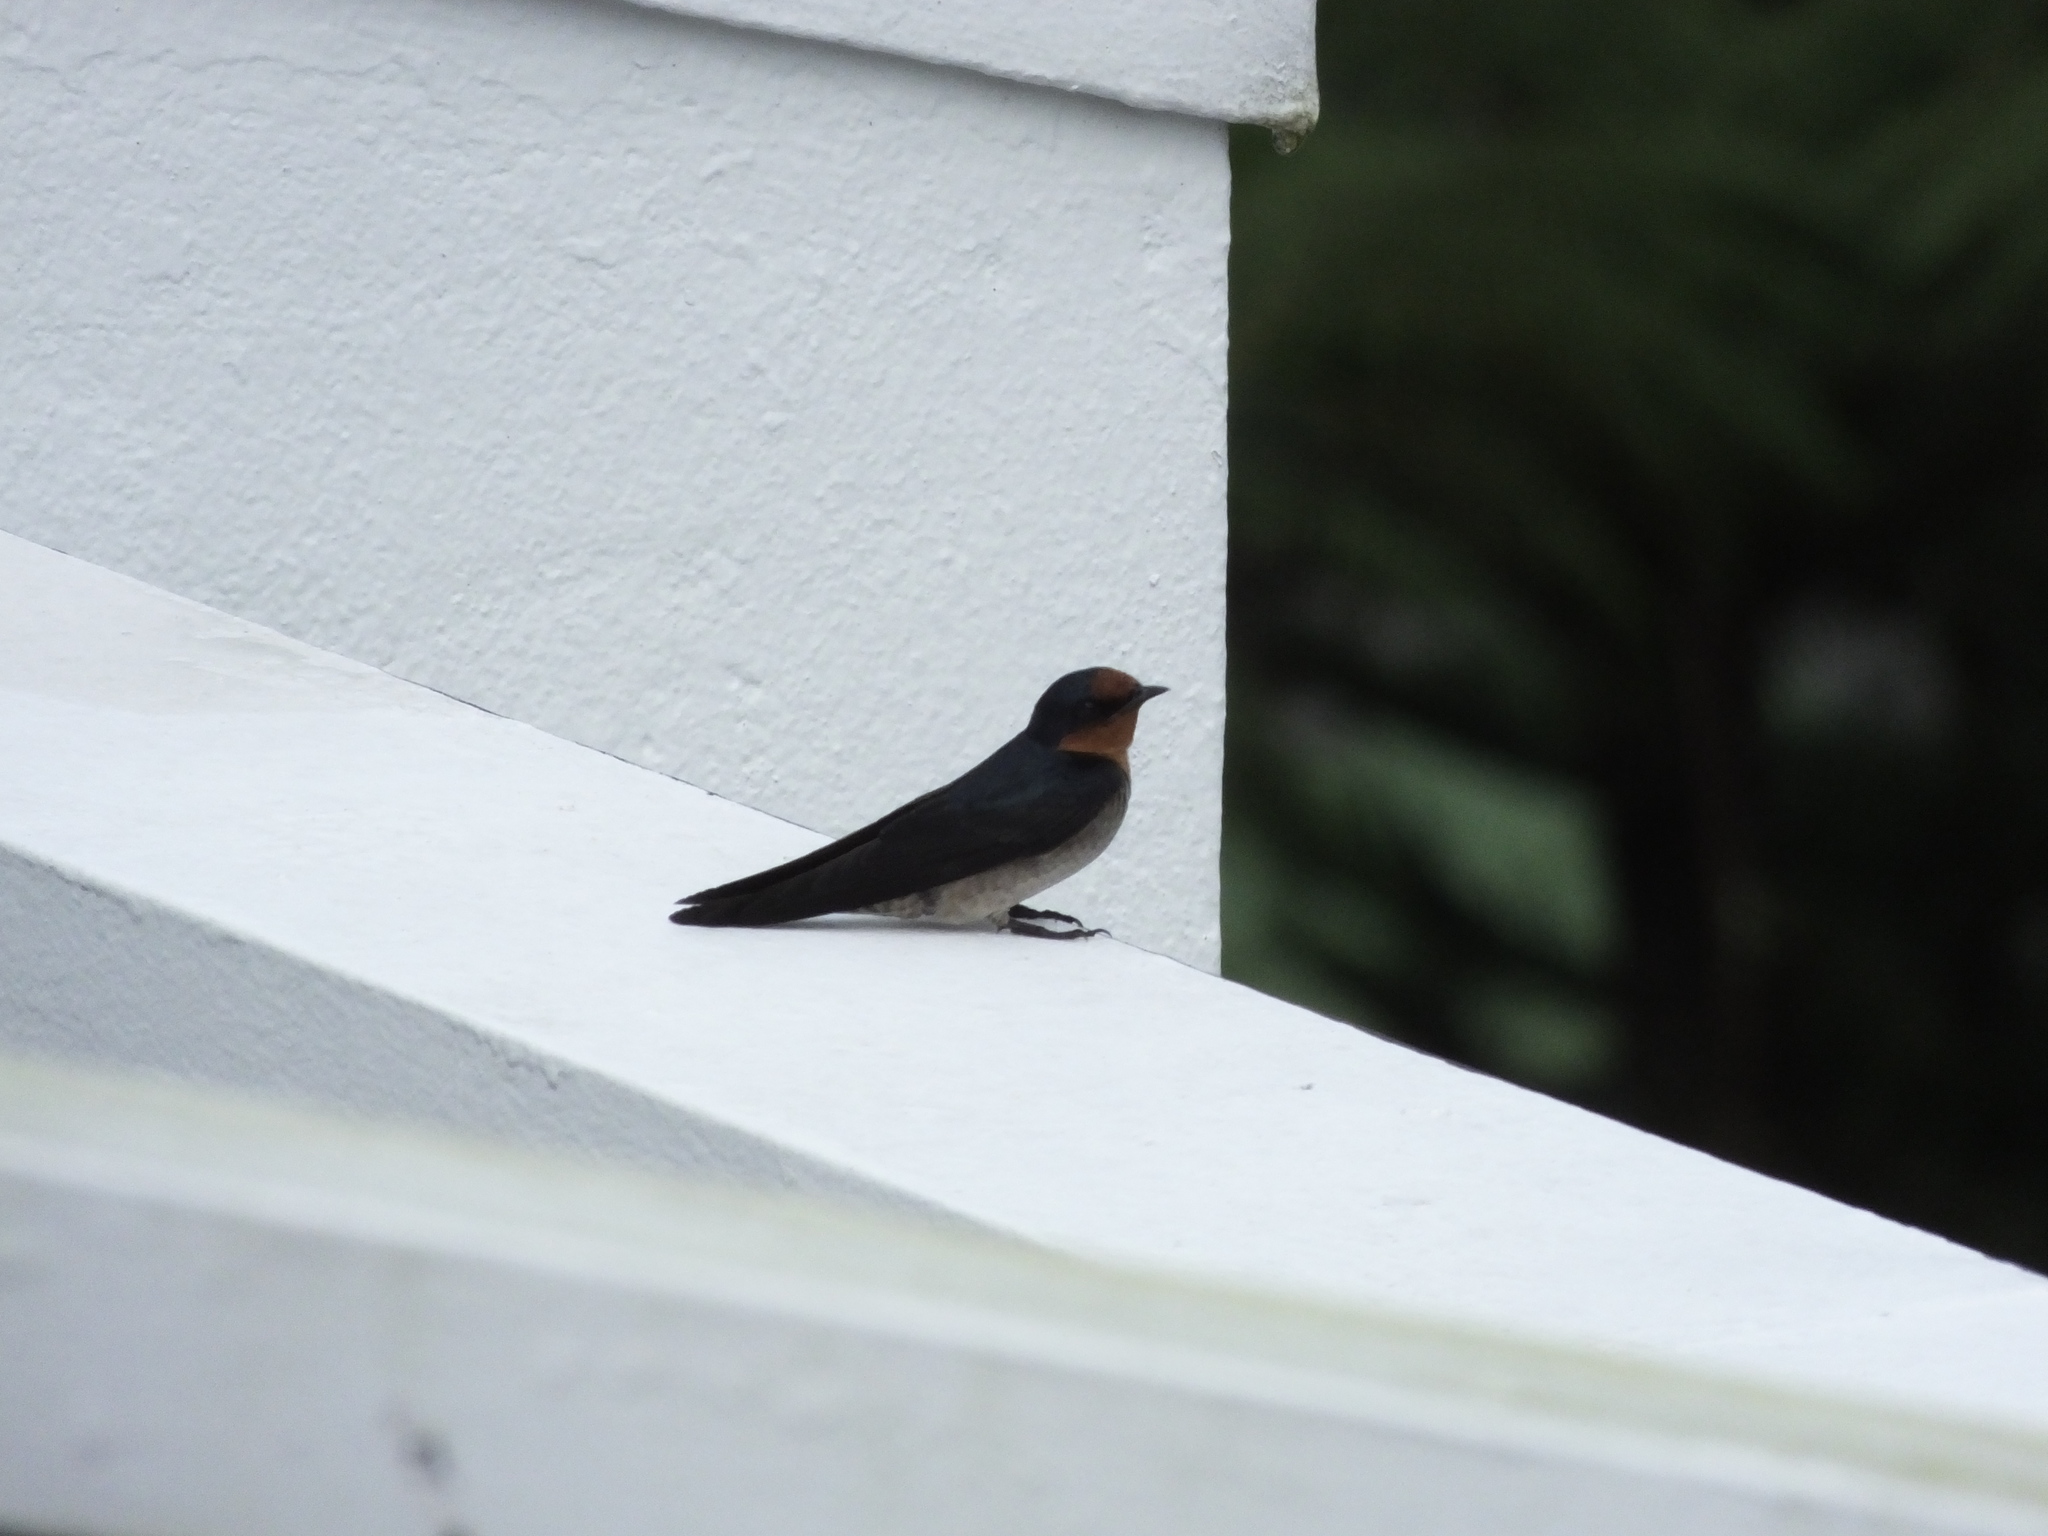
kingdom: Animalia
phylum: Chordata
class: Aves
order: Passeriformes
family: Hirundinidae
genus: Hirundo
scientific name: Hirundo tahitica
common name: Pacific swallow
